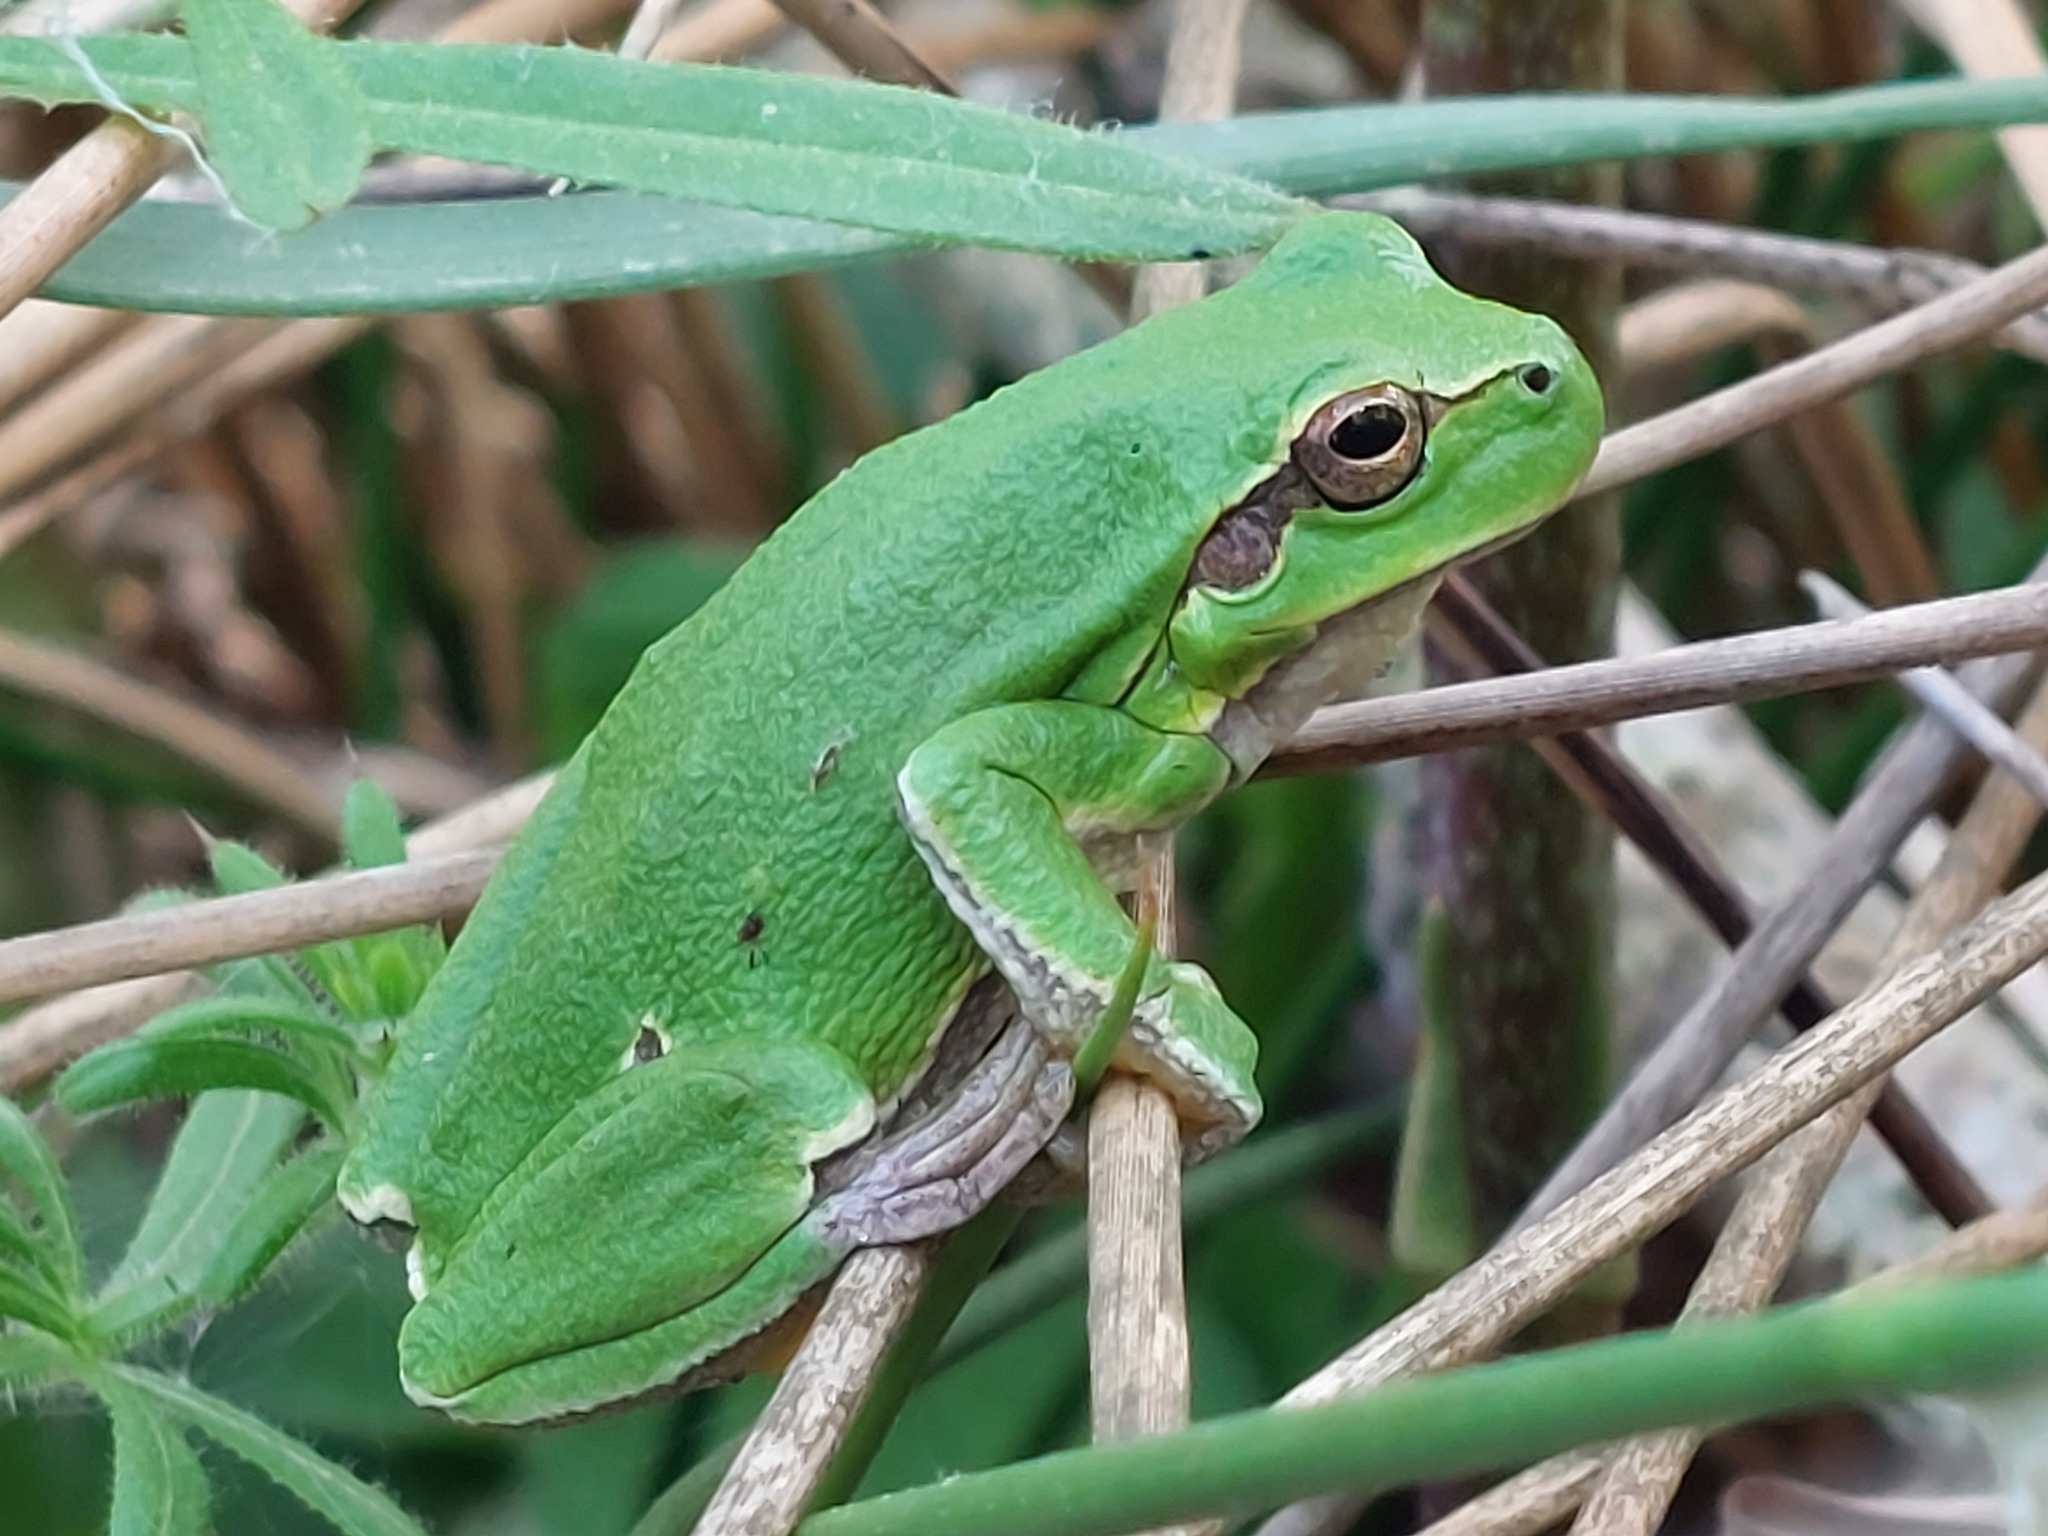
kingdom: Animalia
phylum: Chordata
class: Amphibia
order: Anura
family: Hylidae
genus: Hyla
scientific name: Hyla arborea
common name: Common tree frog
